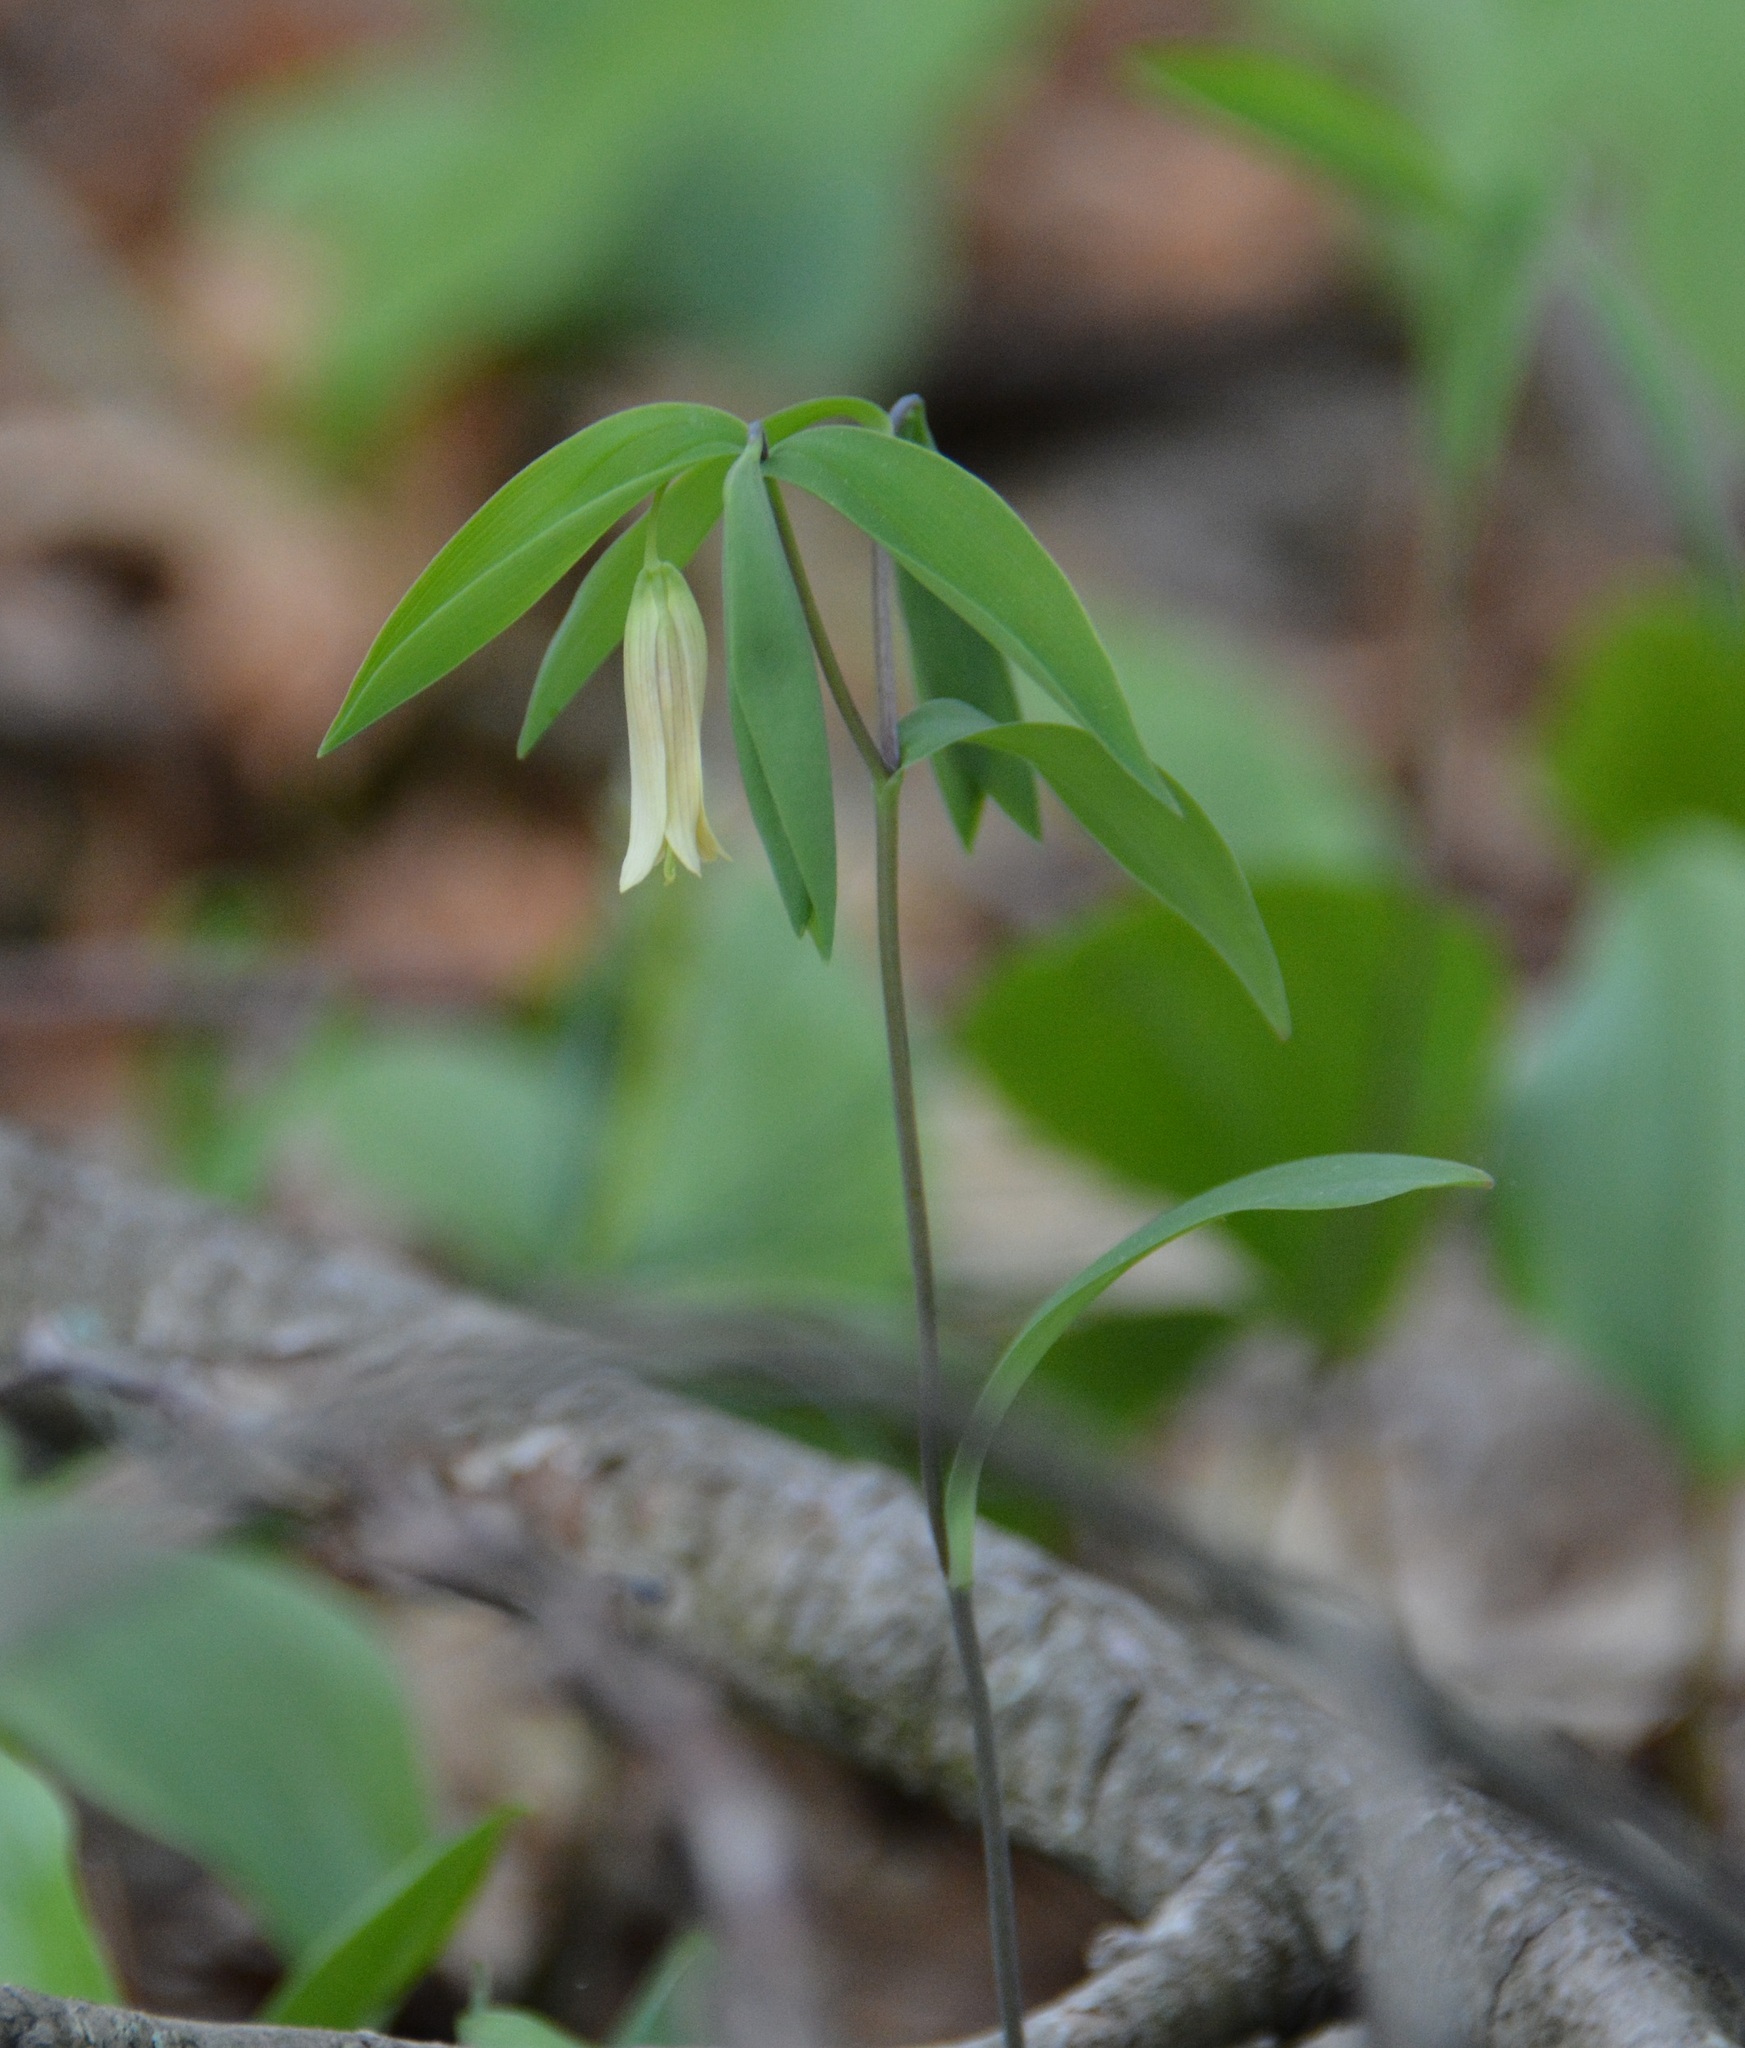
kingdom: Plantae
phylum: Tracheophyta
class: Liliopsida
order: Liliales
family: Colchicaceae
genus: Uvularia
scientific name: Uvularia sessilifolia
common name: Straw-lily
